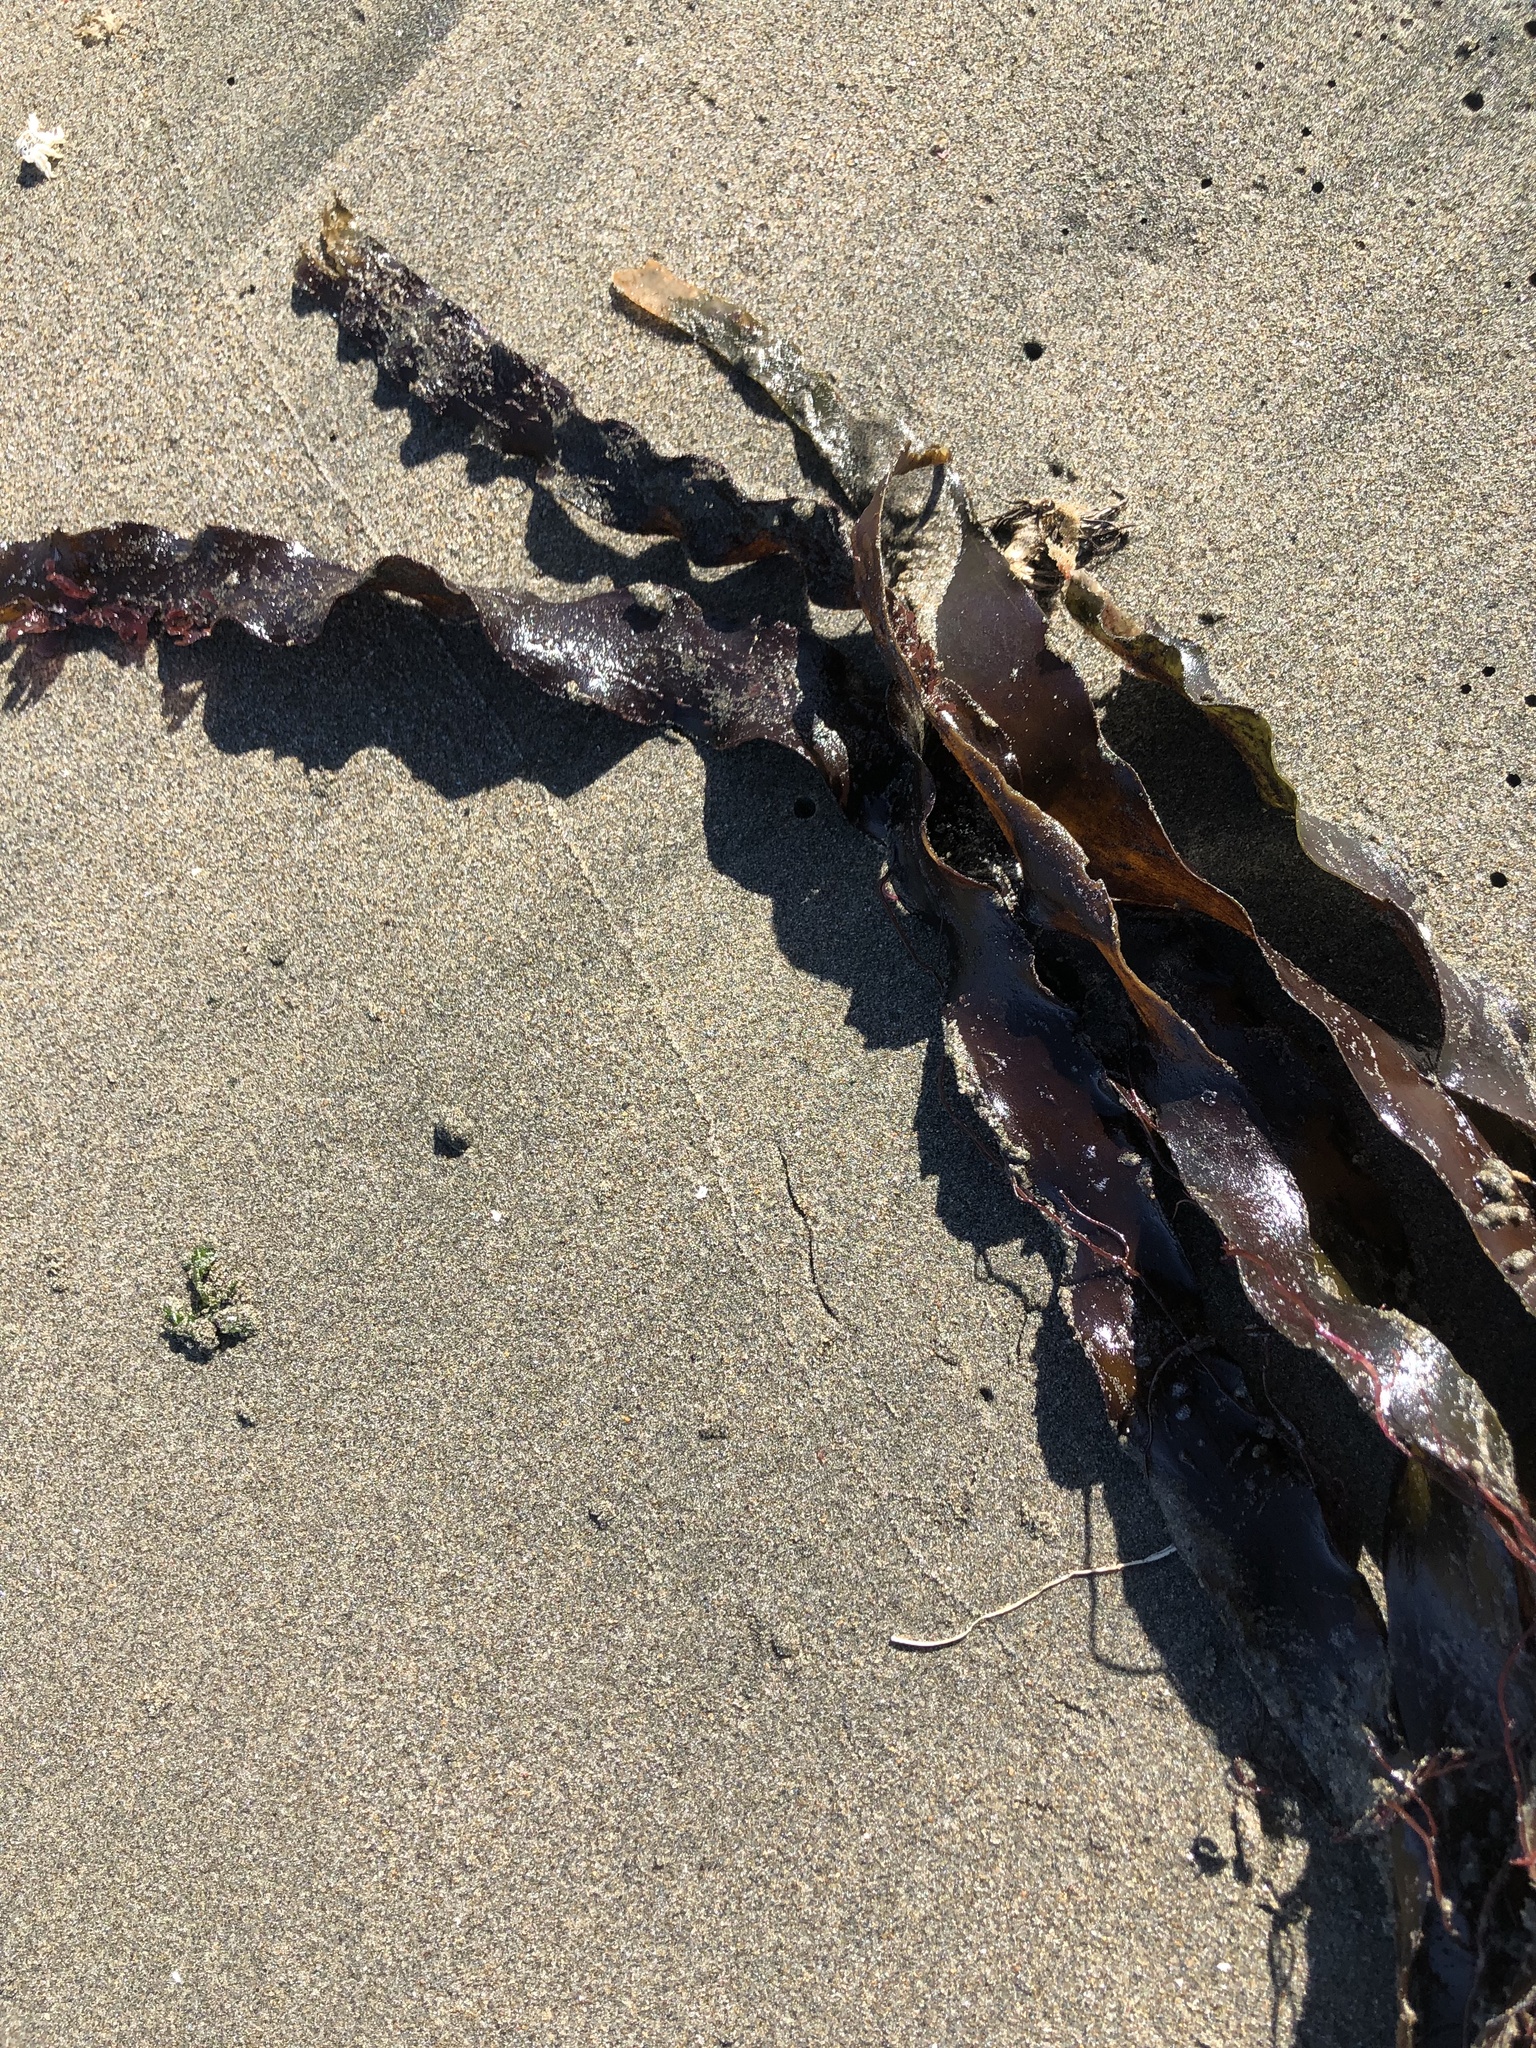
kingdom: Chromista
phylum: Ochrophyta
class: Phaeophyceae
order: Laminariales
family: Laminariaceae
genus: Laminaria
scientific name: Laminaria sinclairii
